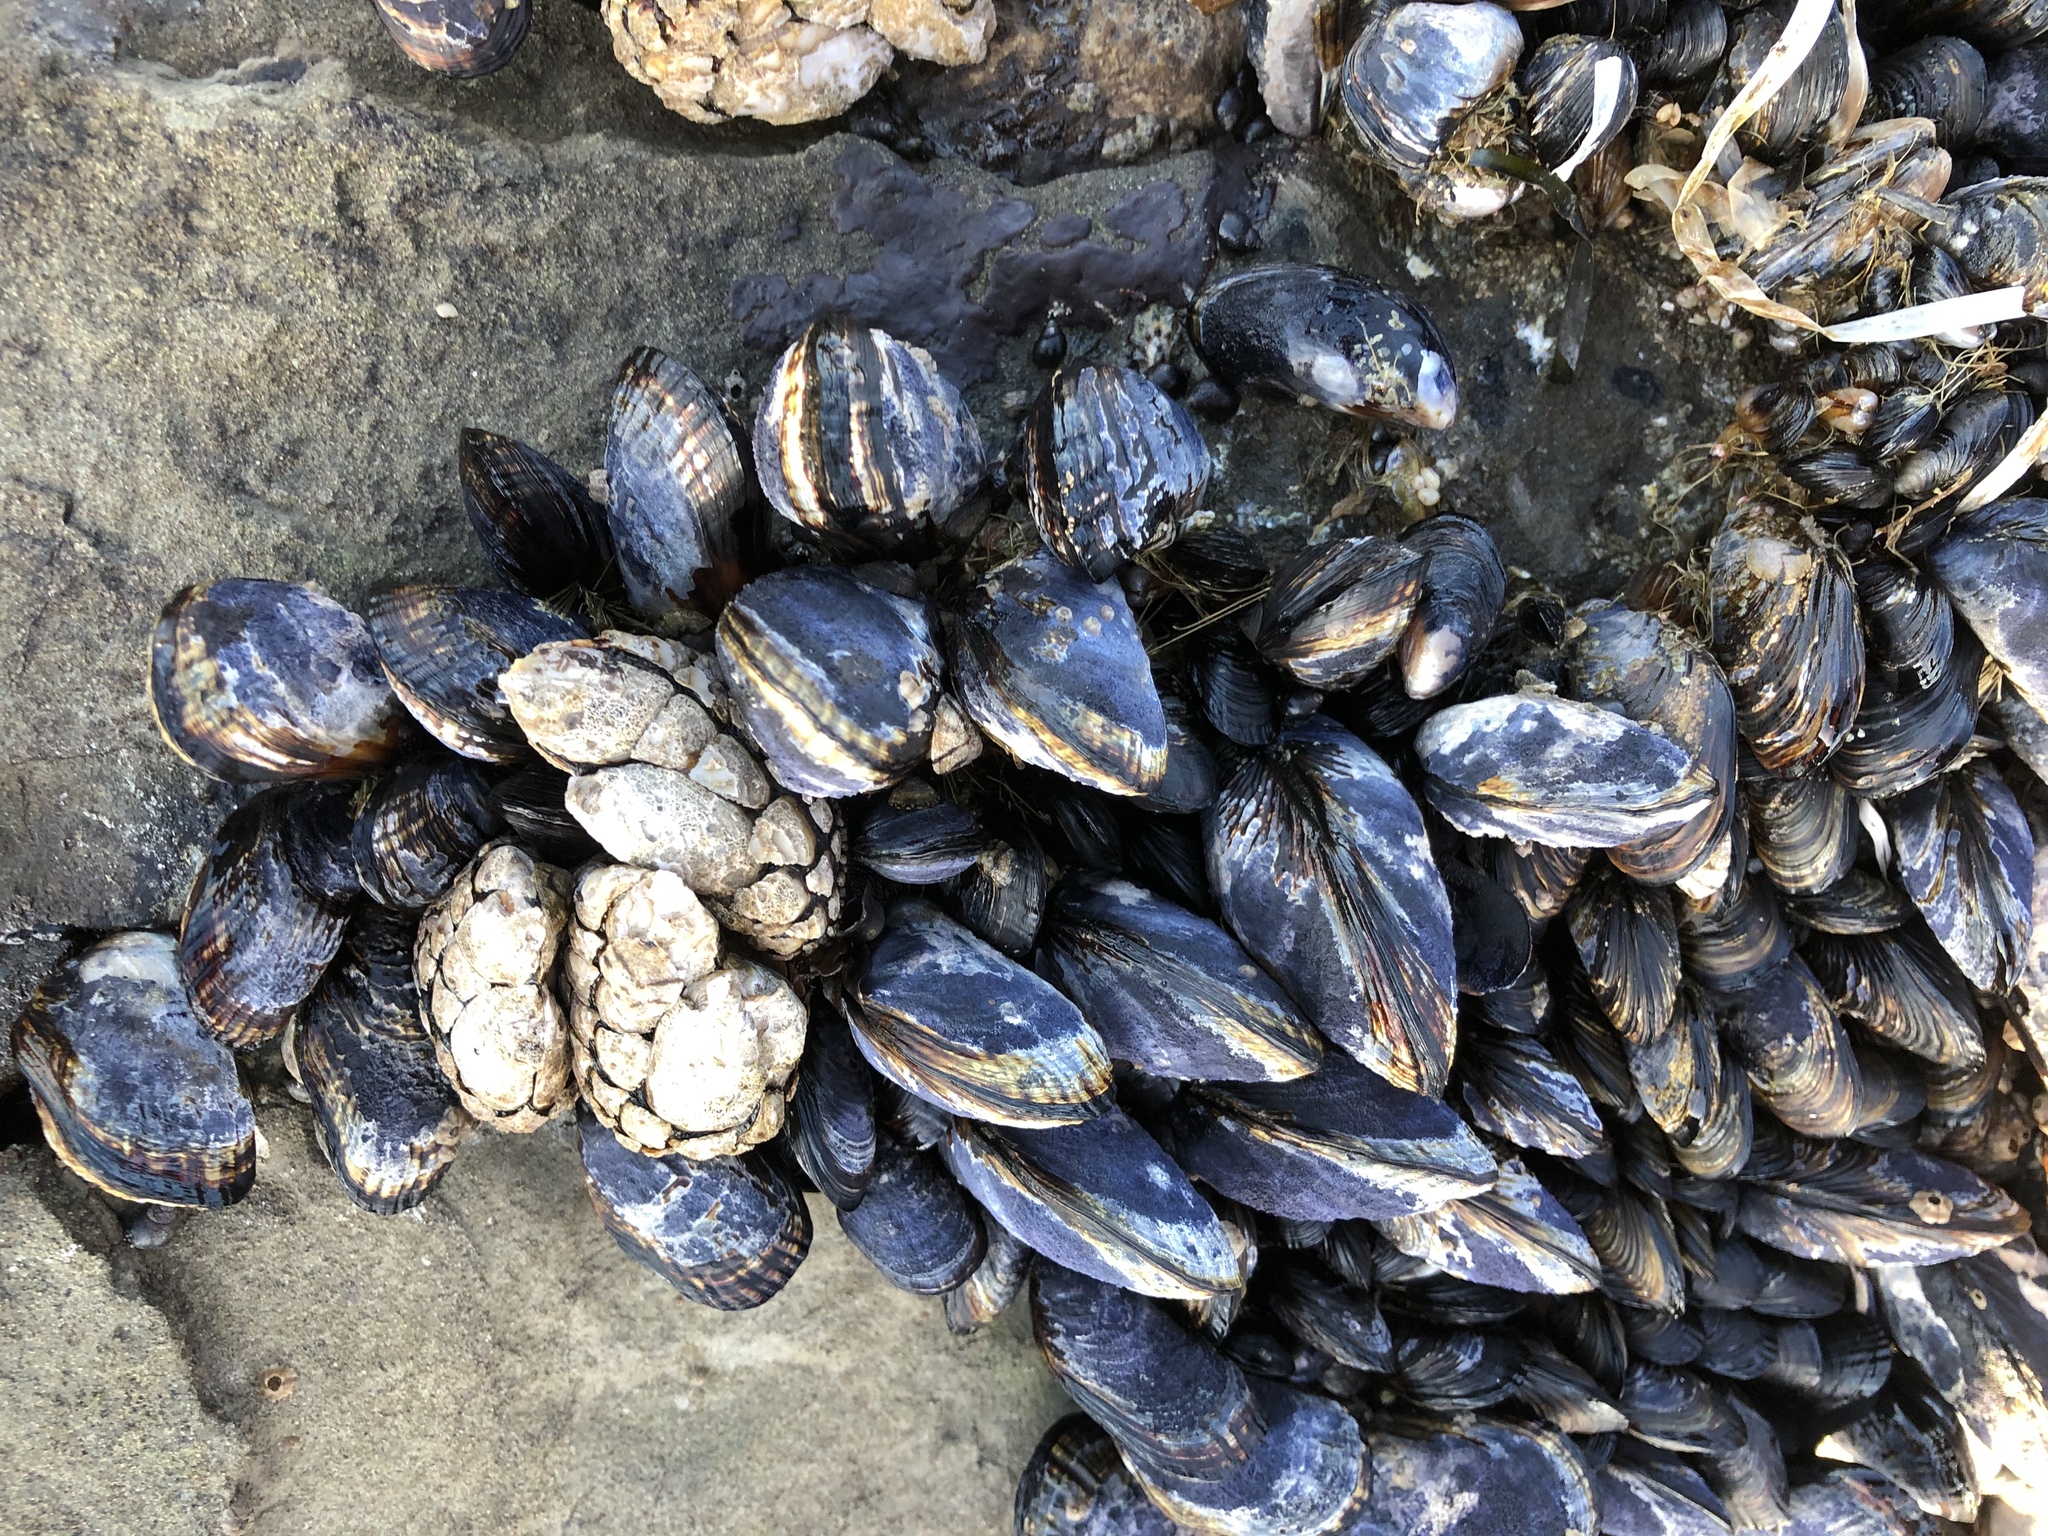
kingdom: Animalia
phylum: Mollusca
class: Bivalvia
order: Mytilida
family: Mytilidae
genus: Mytilus
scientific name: Mytilus californianus
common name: California mussel
